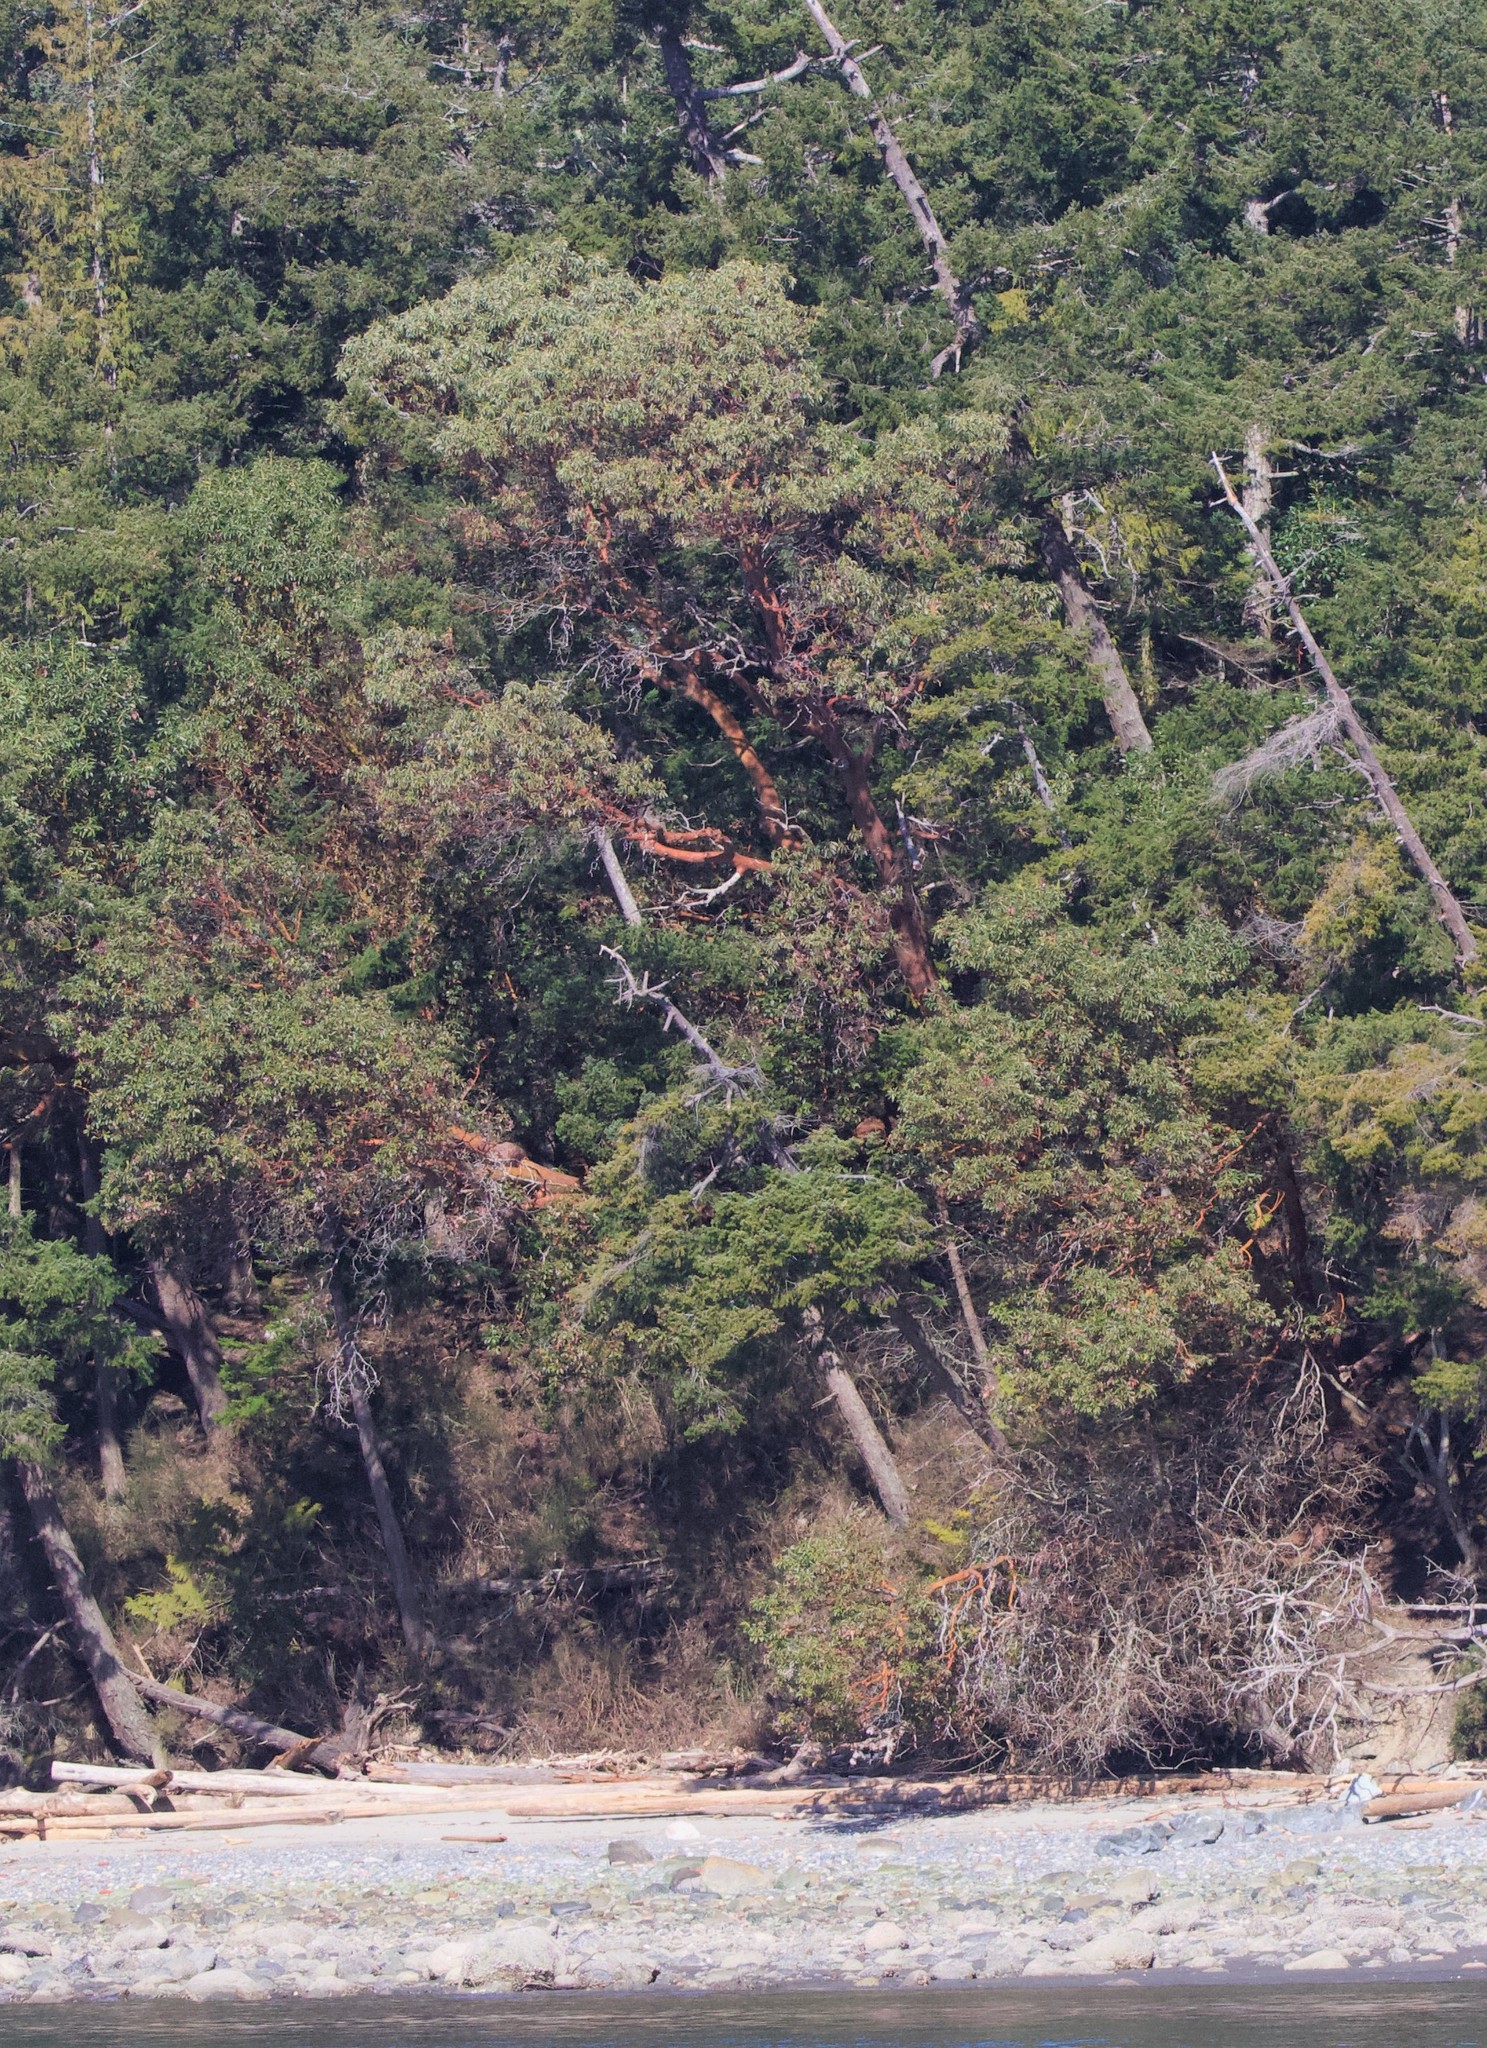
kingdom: Plantae
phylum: Tracheophyta
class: Magnoliopsida
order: Ericales
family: Ericaceae
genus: Arbutus
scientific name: Arbutus menziesii
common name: Pacific madrone
